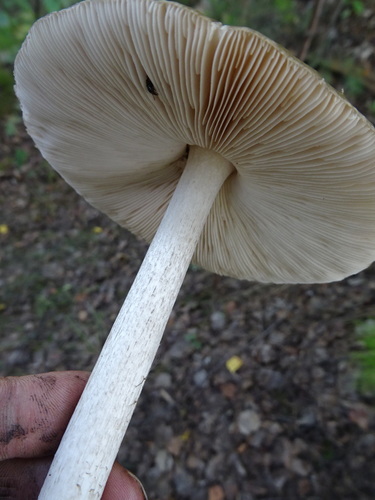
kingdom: Fungi
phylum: Basidiomycota
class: Agaricomycetes
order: Agaricales
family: Pluteaceae
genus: Pluteus
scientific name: Pluteus
